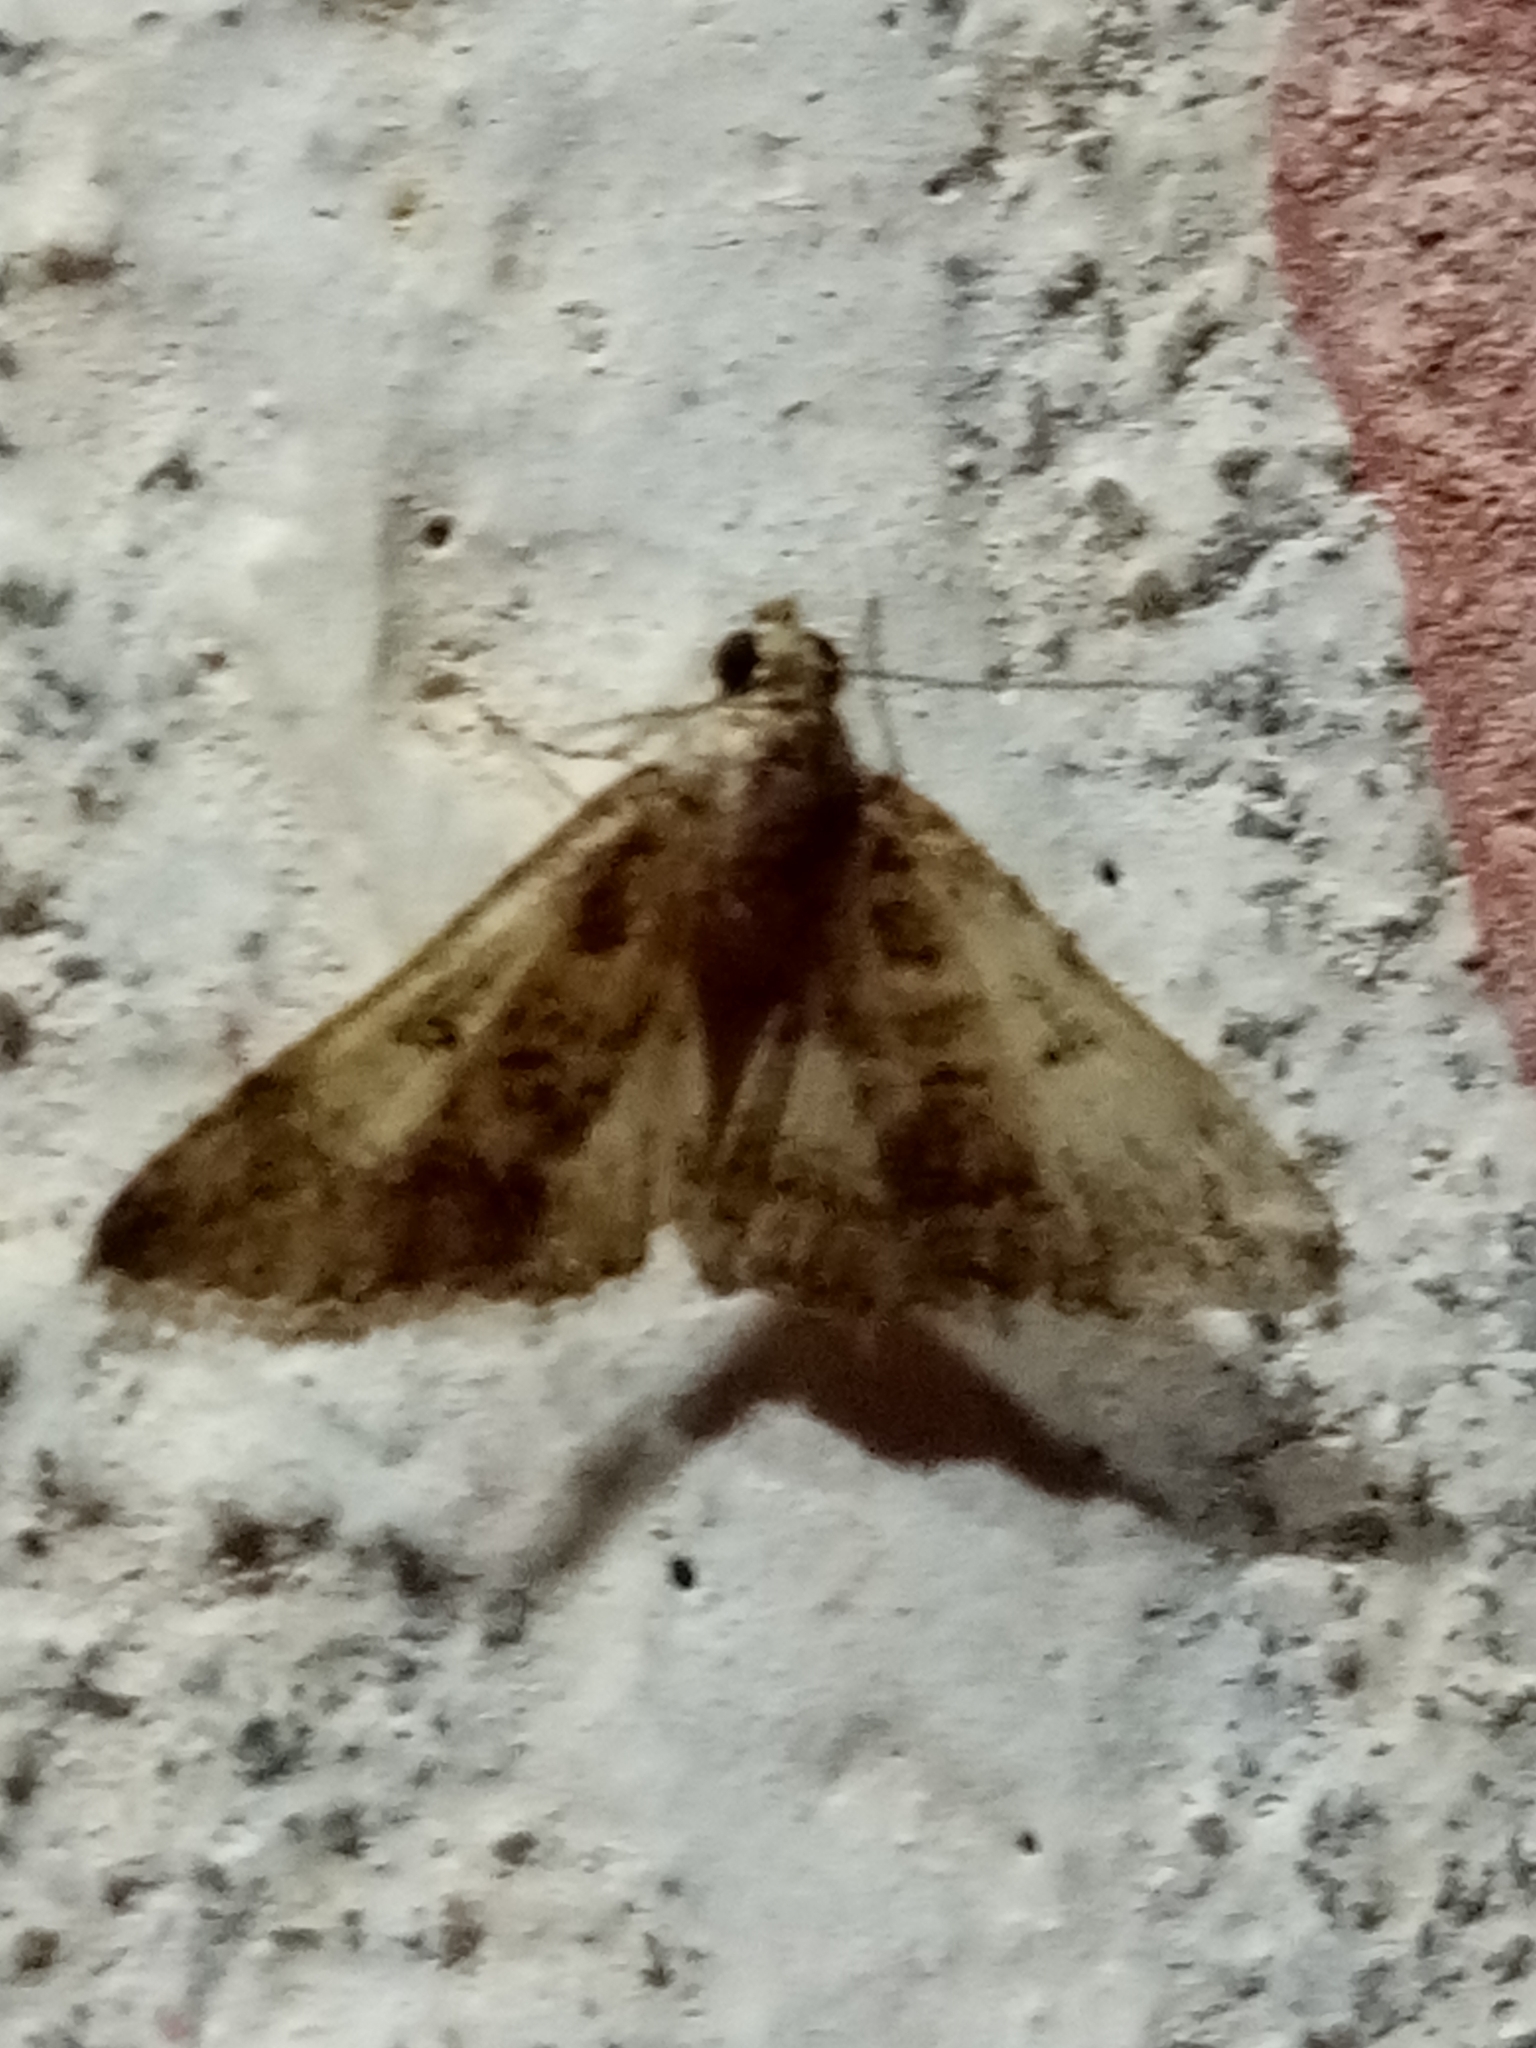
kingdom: Animalia
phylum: Arthropoda
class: Insecta
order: Lepidoptera
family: Crambidae
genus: Duponchelia
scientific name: Duponchelia fovealis
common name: Crambid moth
